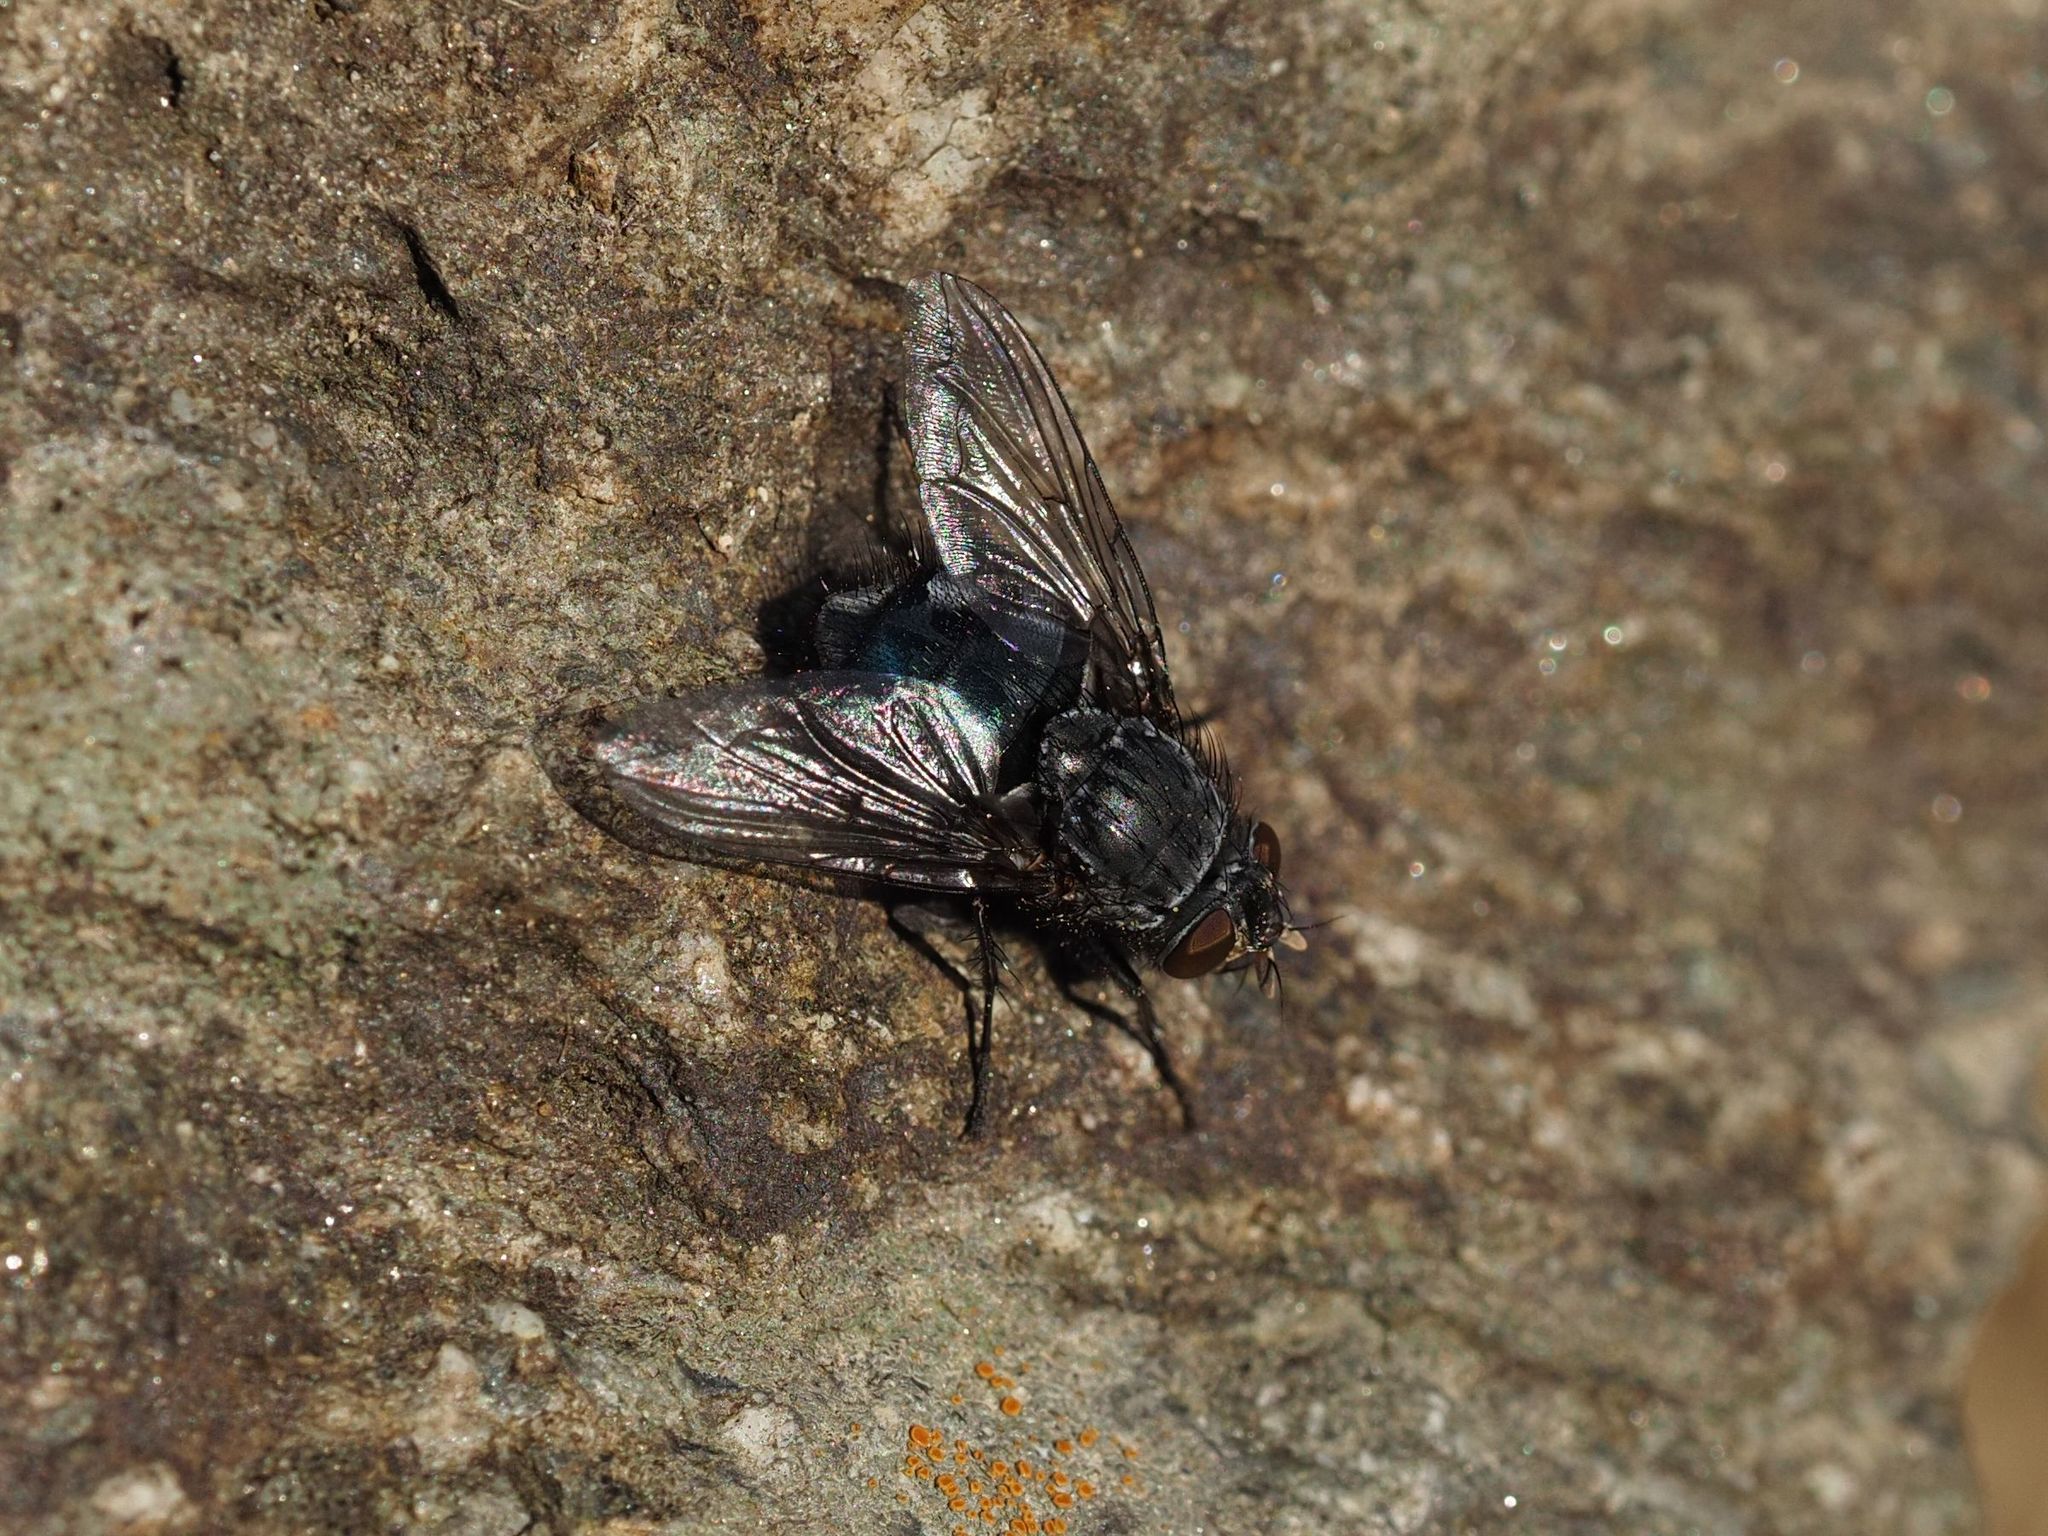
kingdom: Animalia
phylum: Arthropoda
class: Insecta
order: Diptera
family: Calliphoridae
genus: Calliphora
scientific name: Calliphora vicina
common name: Common blow flie
